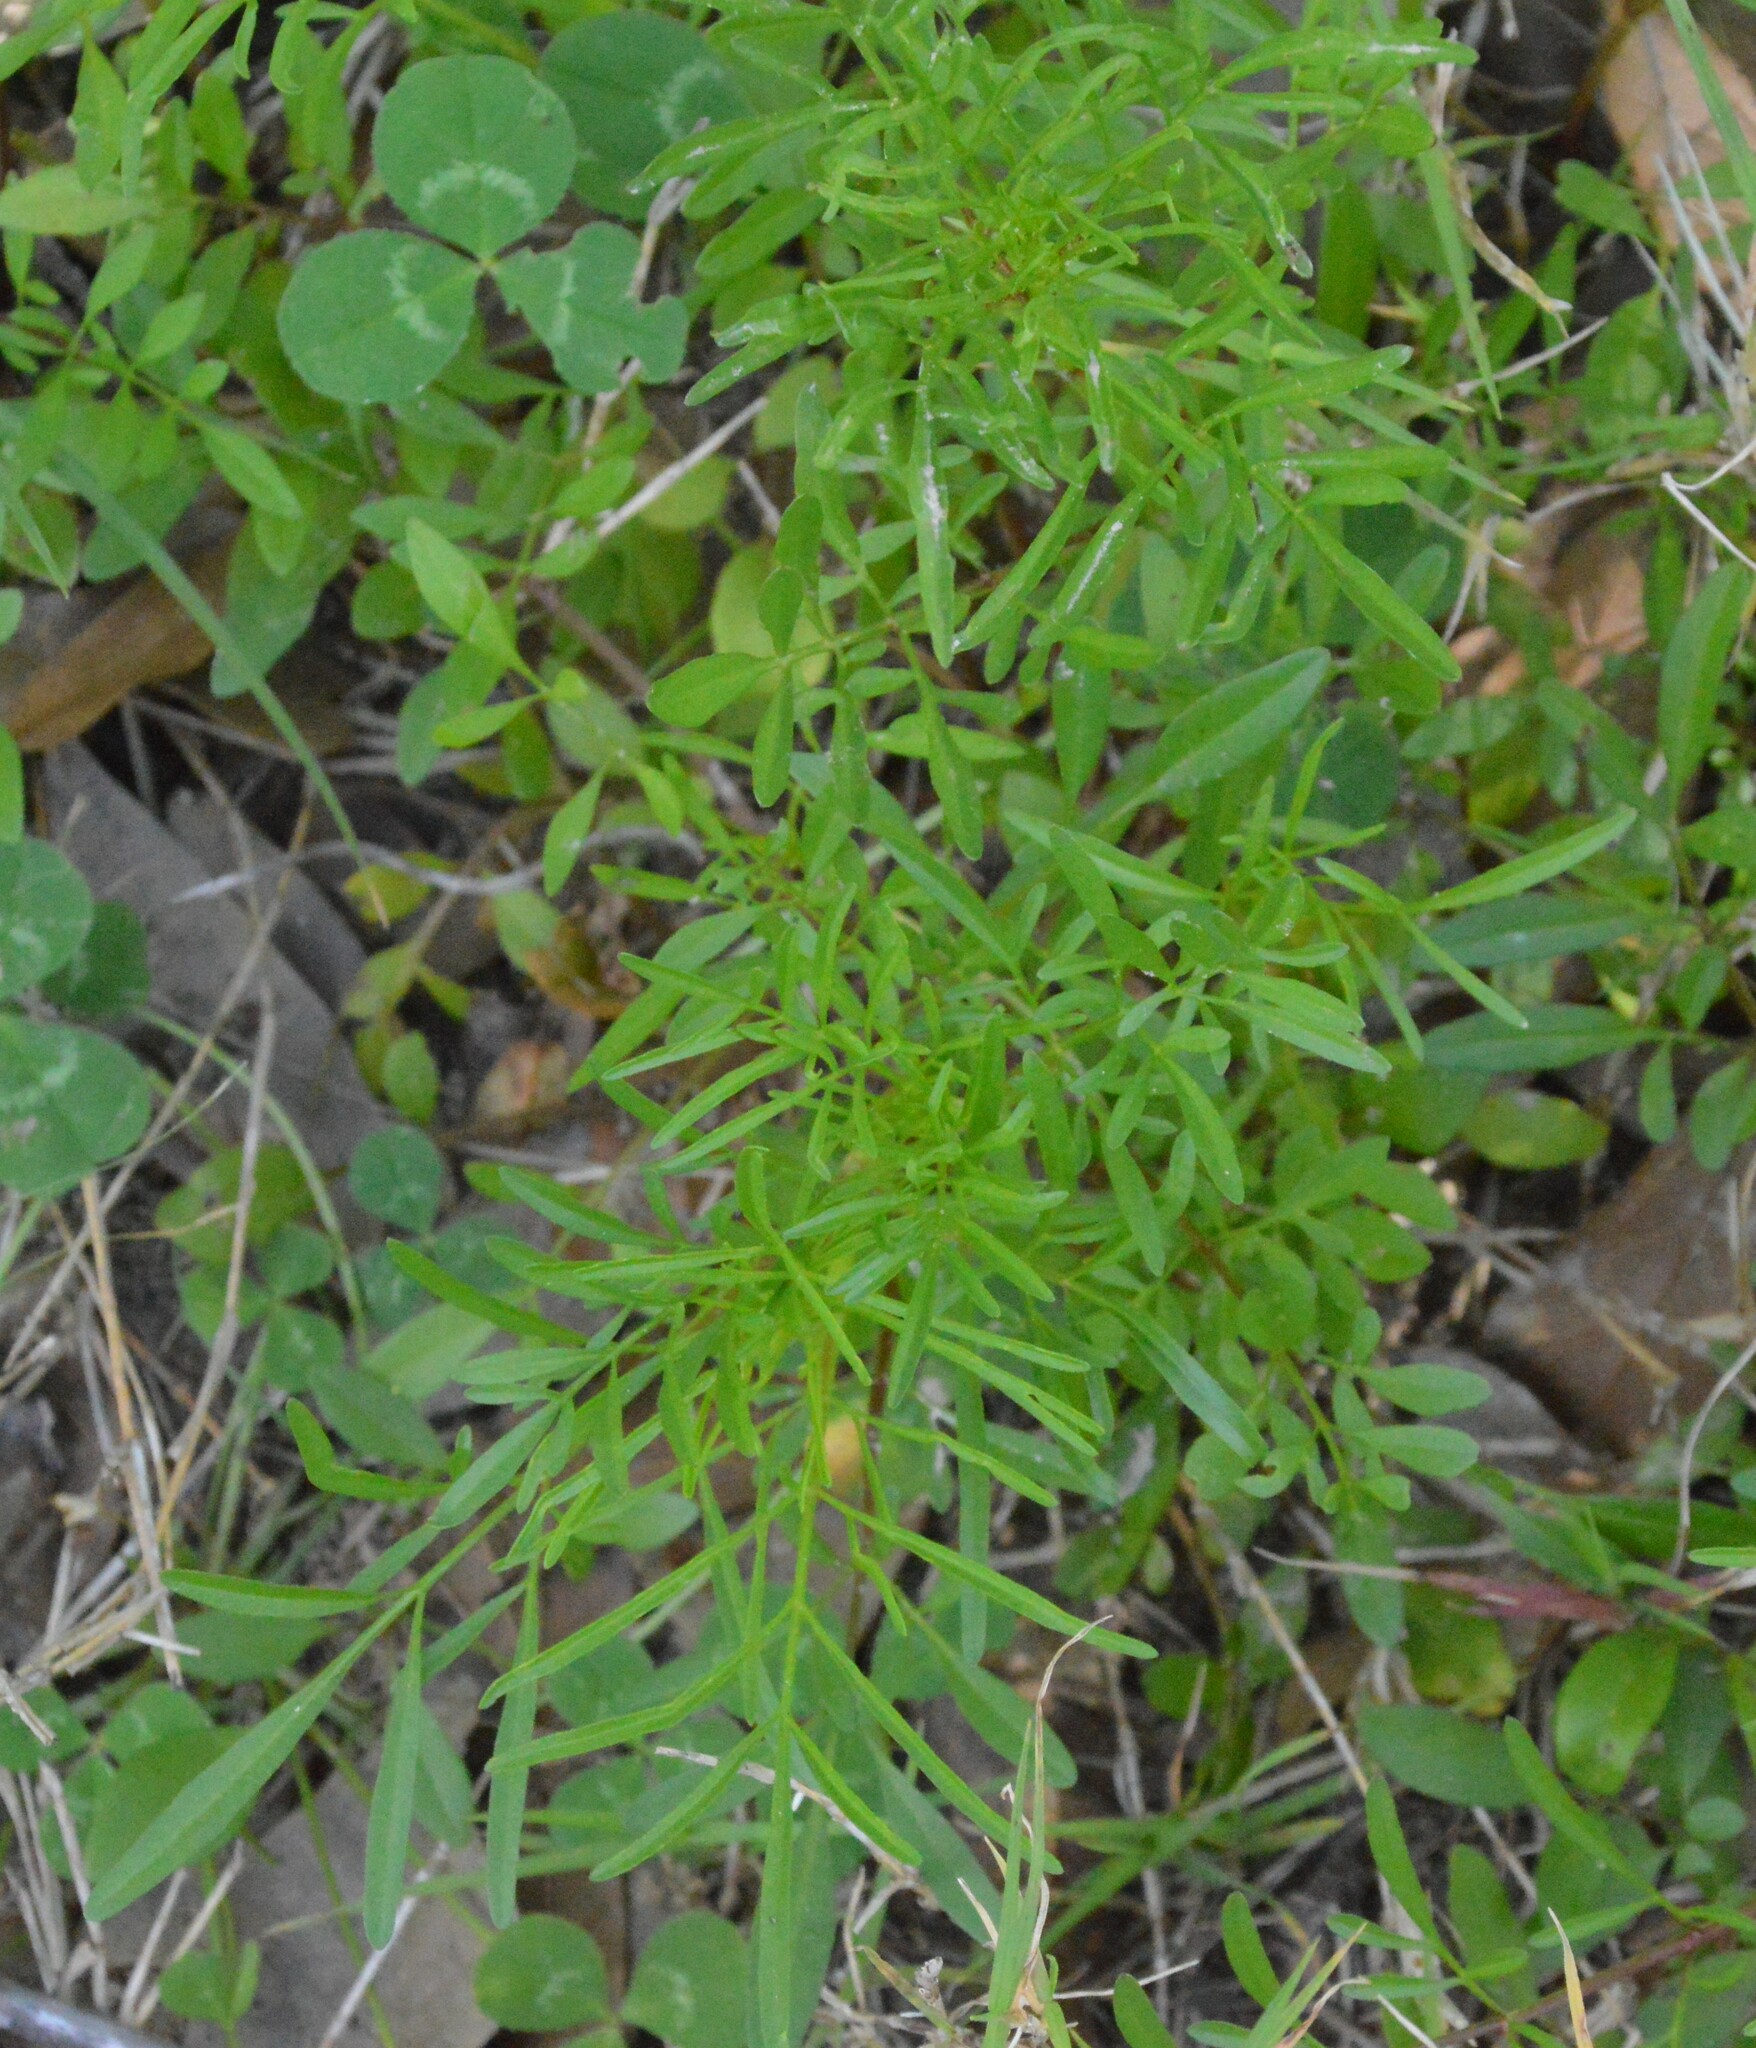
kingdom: Plantae
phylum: Tracheophyta
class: Magnoliopsida
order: Asterales
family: Asteraceae
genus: Coreopsis
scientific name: Coreopsis tinctoria
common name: Garden tickseed
